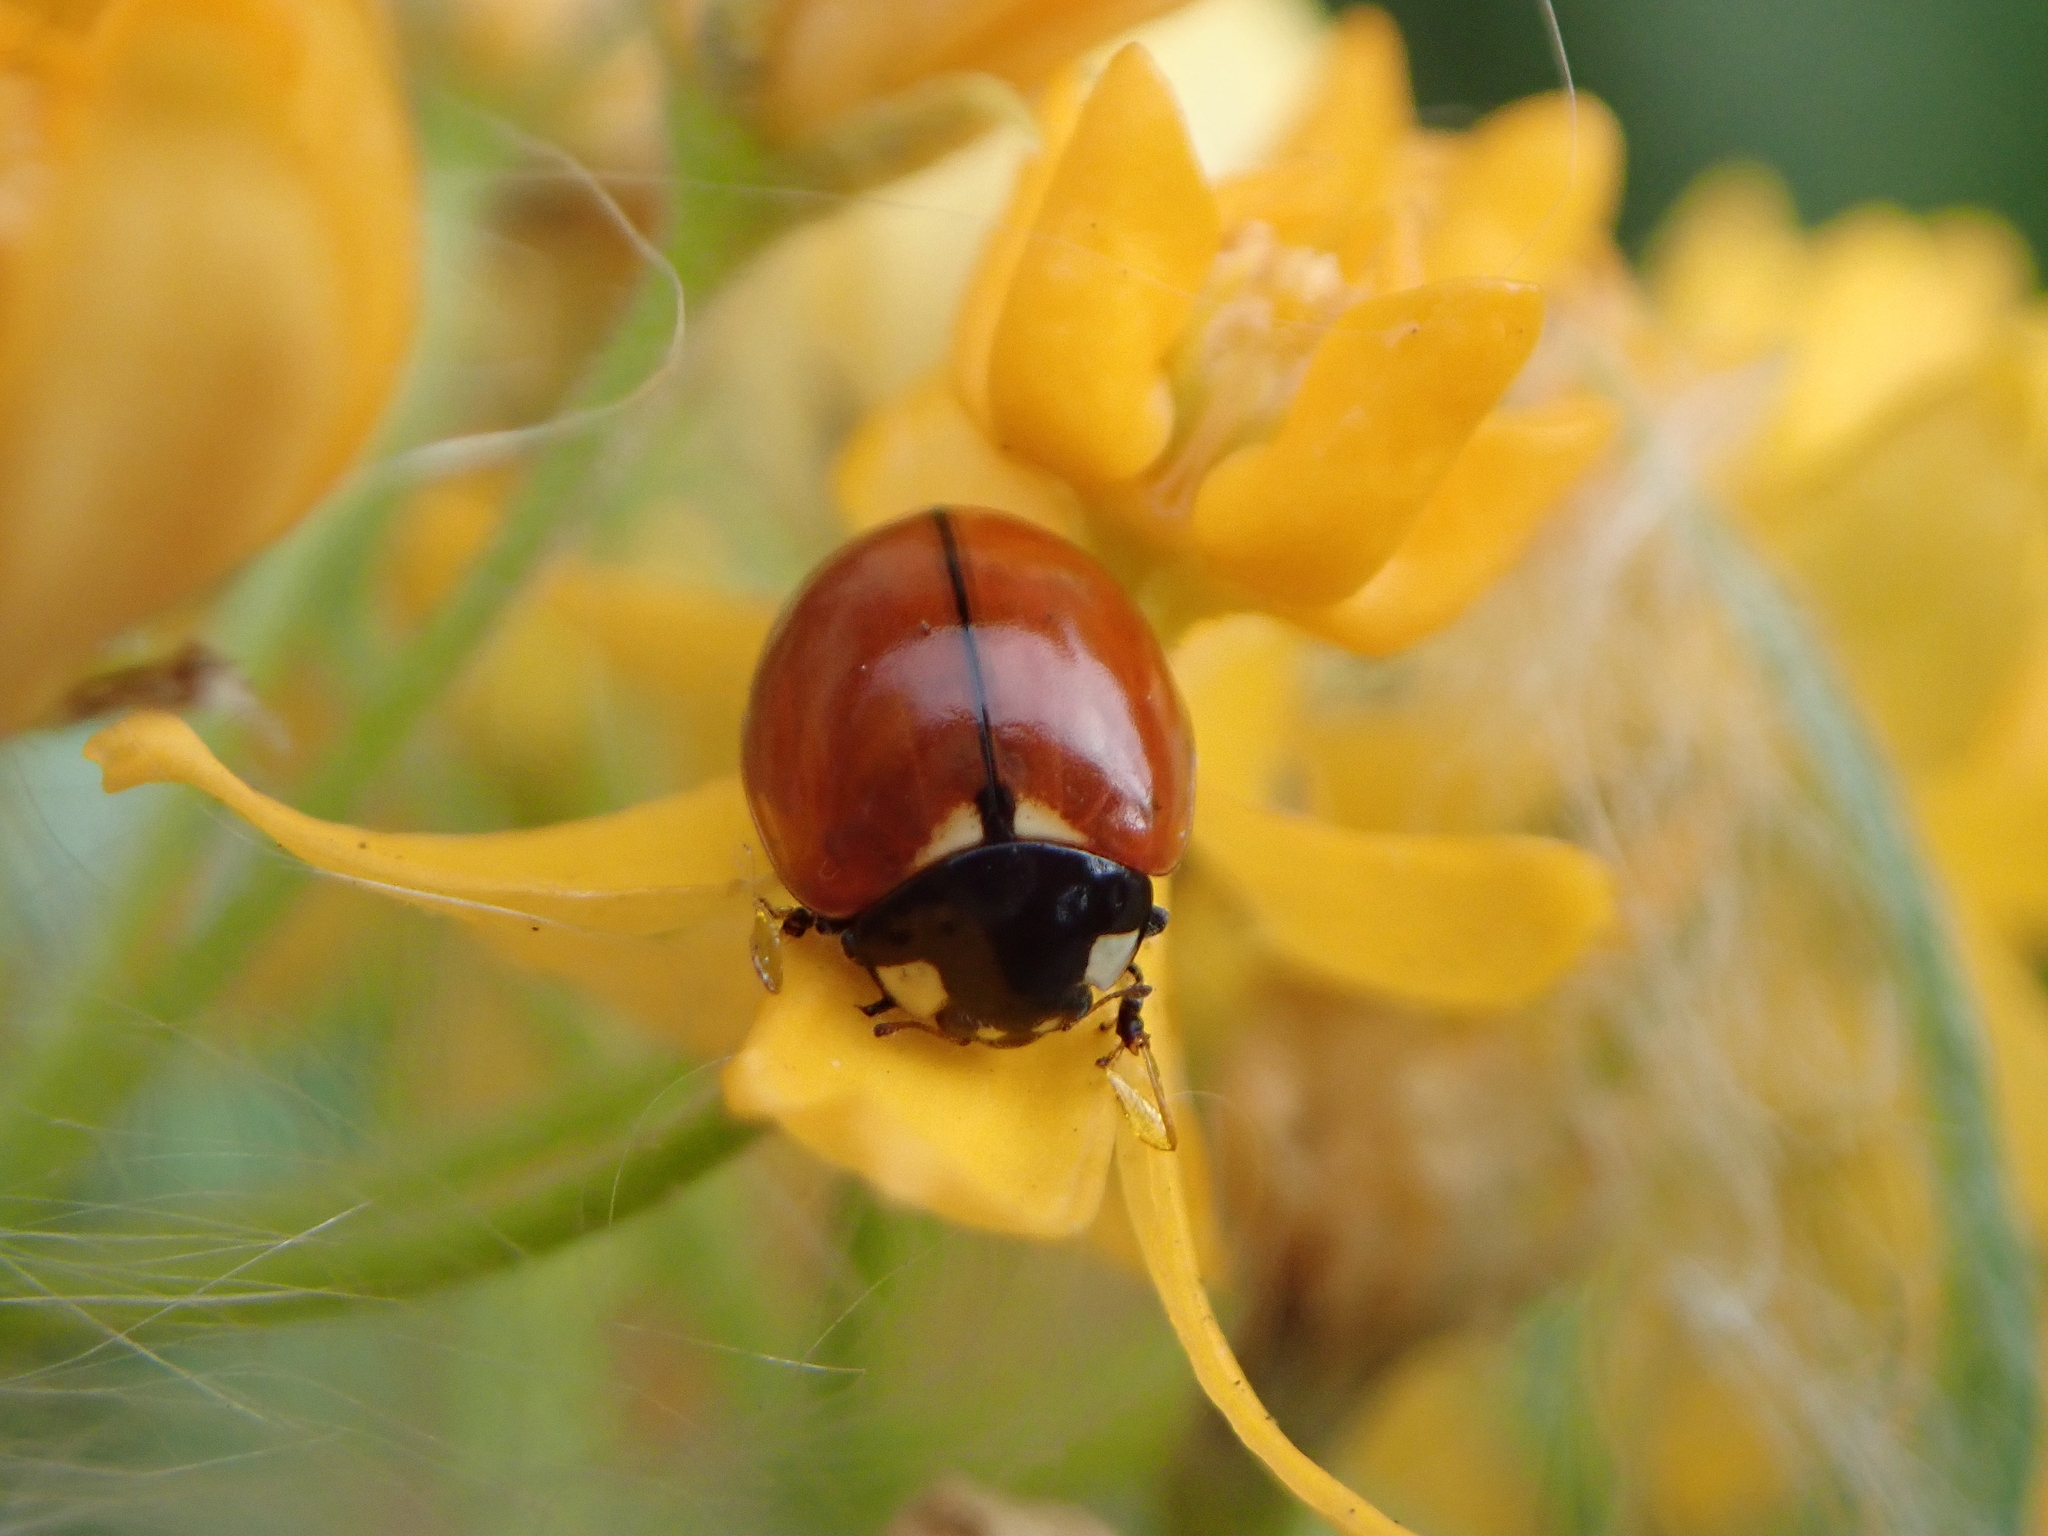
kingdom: Animalia
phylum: Arthropoda
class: Insecta
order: Coleoptera
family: Coccinellidae
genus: Coccinella
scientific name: Coccinella californica
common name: Lady beetle
